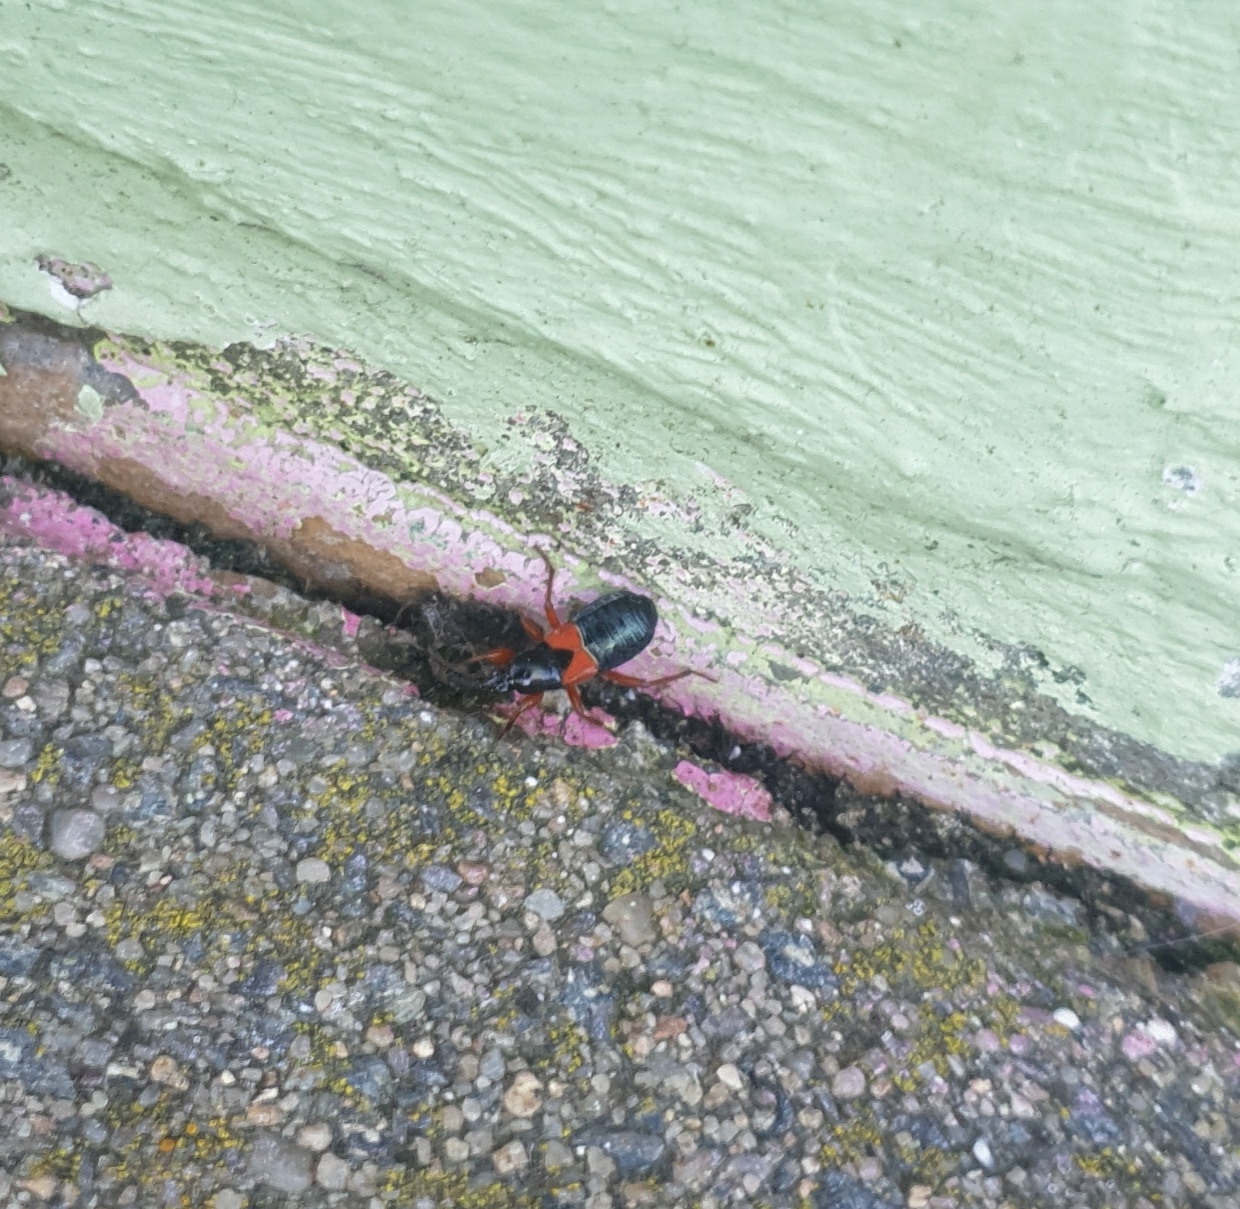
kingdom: Animalia
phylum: Arthropoda
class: Insecta
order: Hemiptera
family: Nabidae
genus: Prostemma
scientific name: Prostemma guttula
